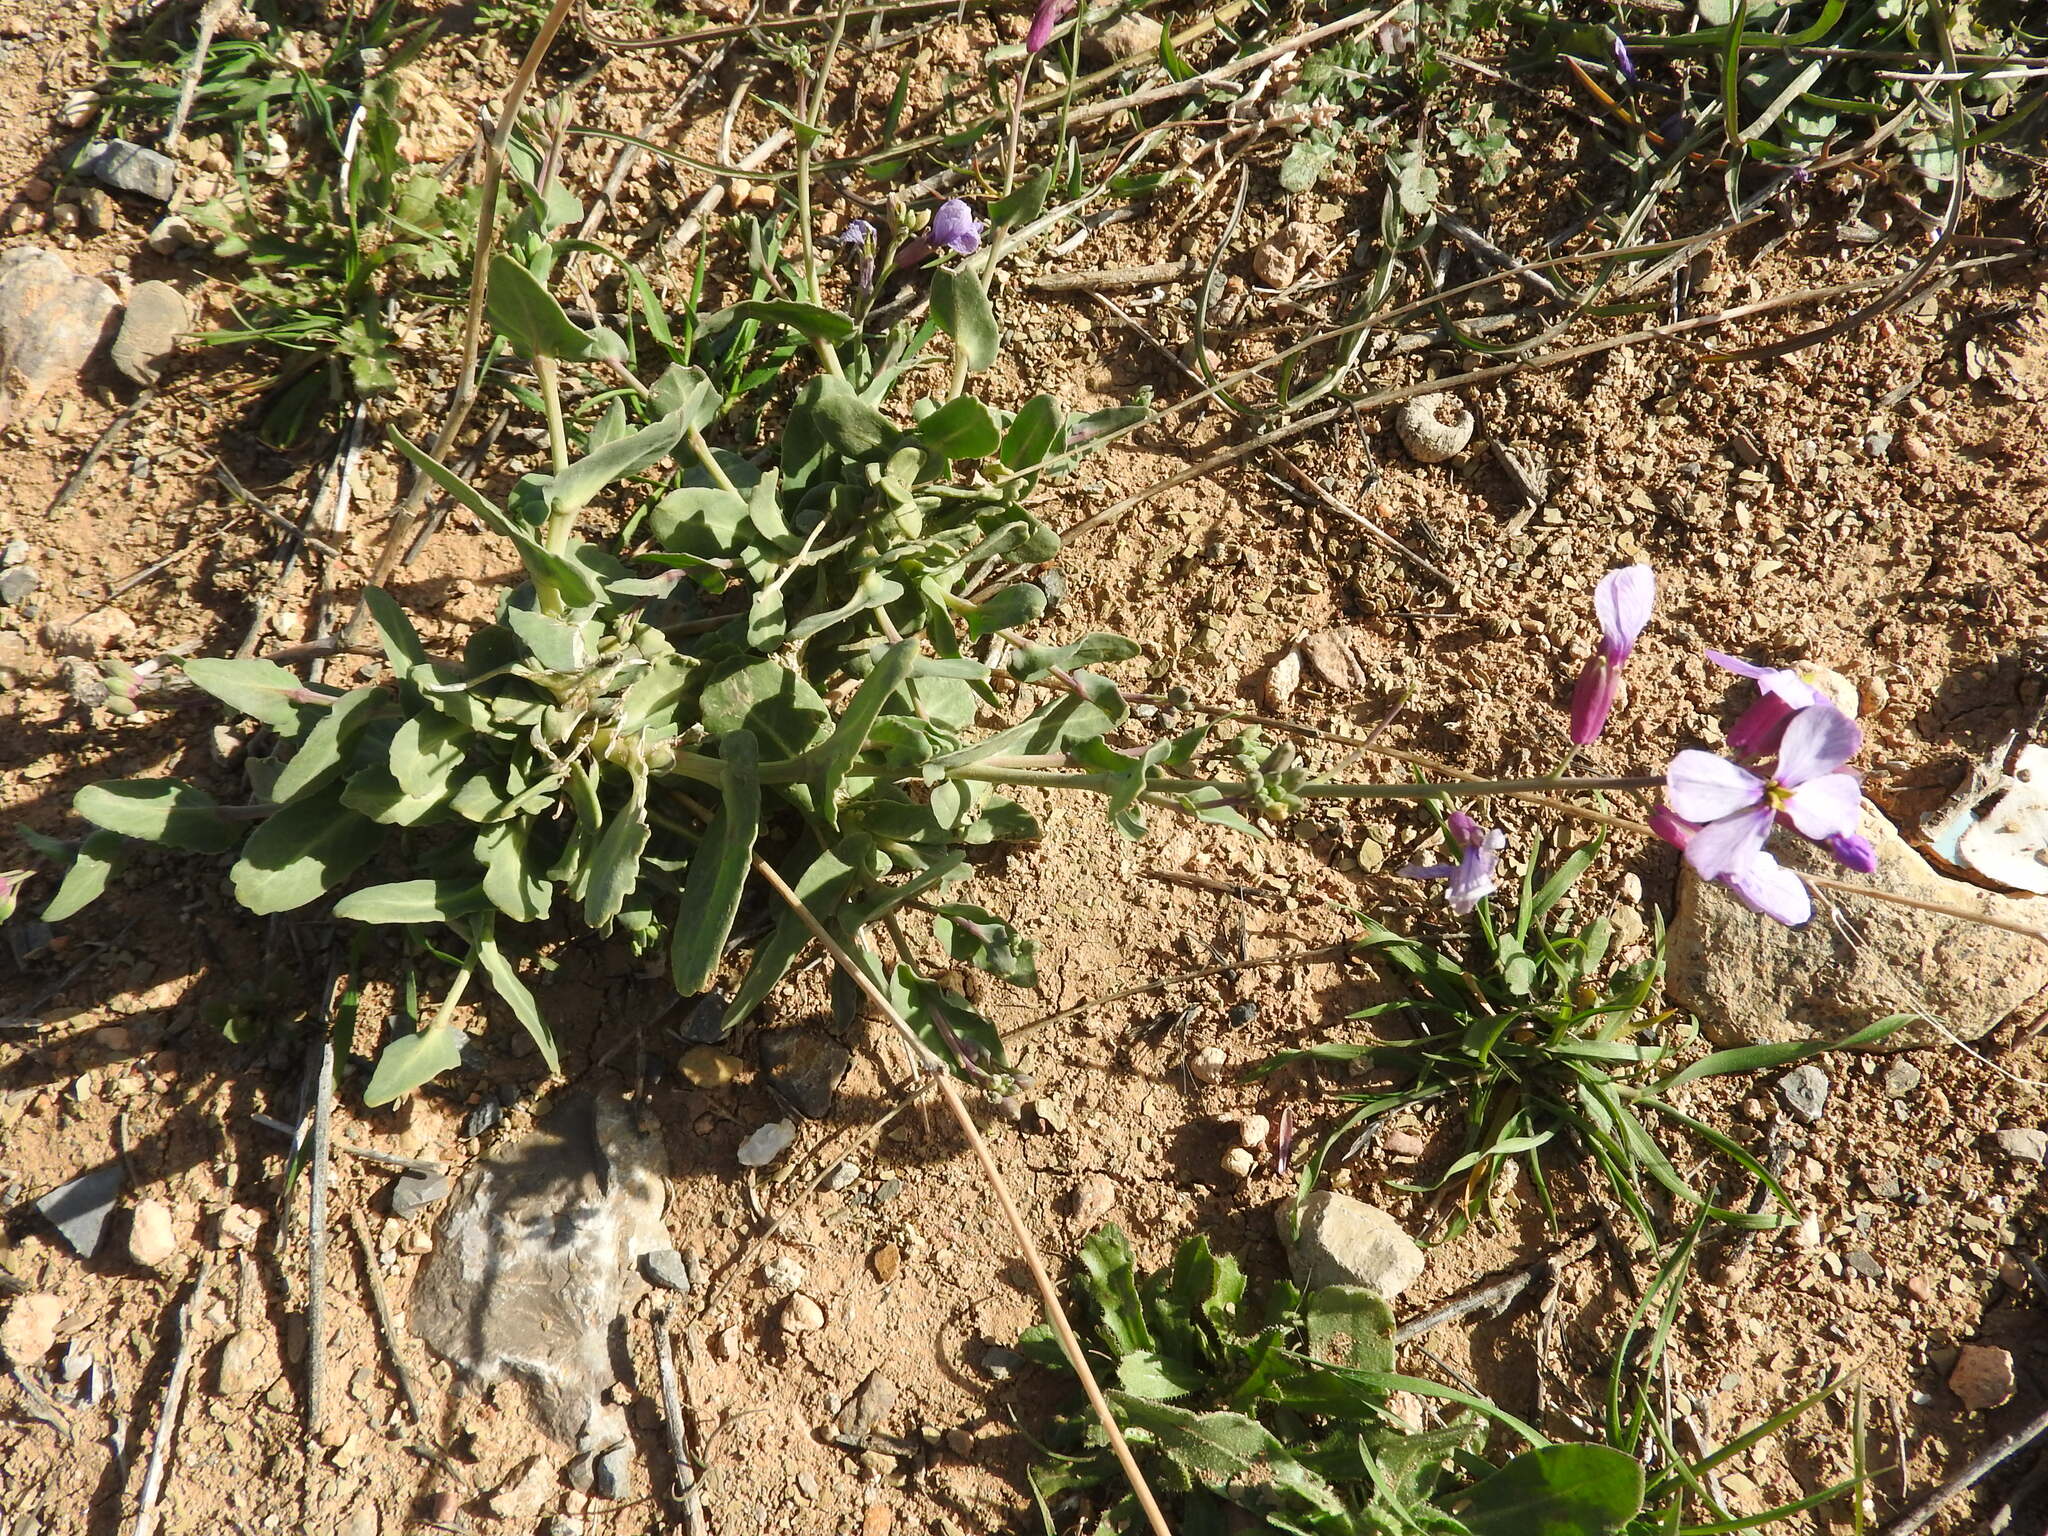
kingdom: Plantae
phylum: Tracheophyta
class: Magnoliopsida
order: Brassicales
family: Brassicaceae
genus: Moricandia
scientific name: Moricandia suffruticosa
